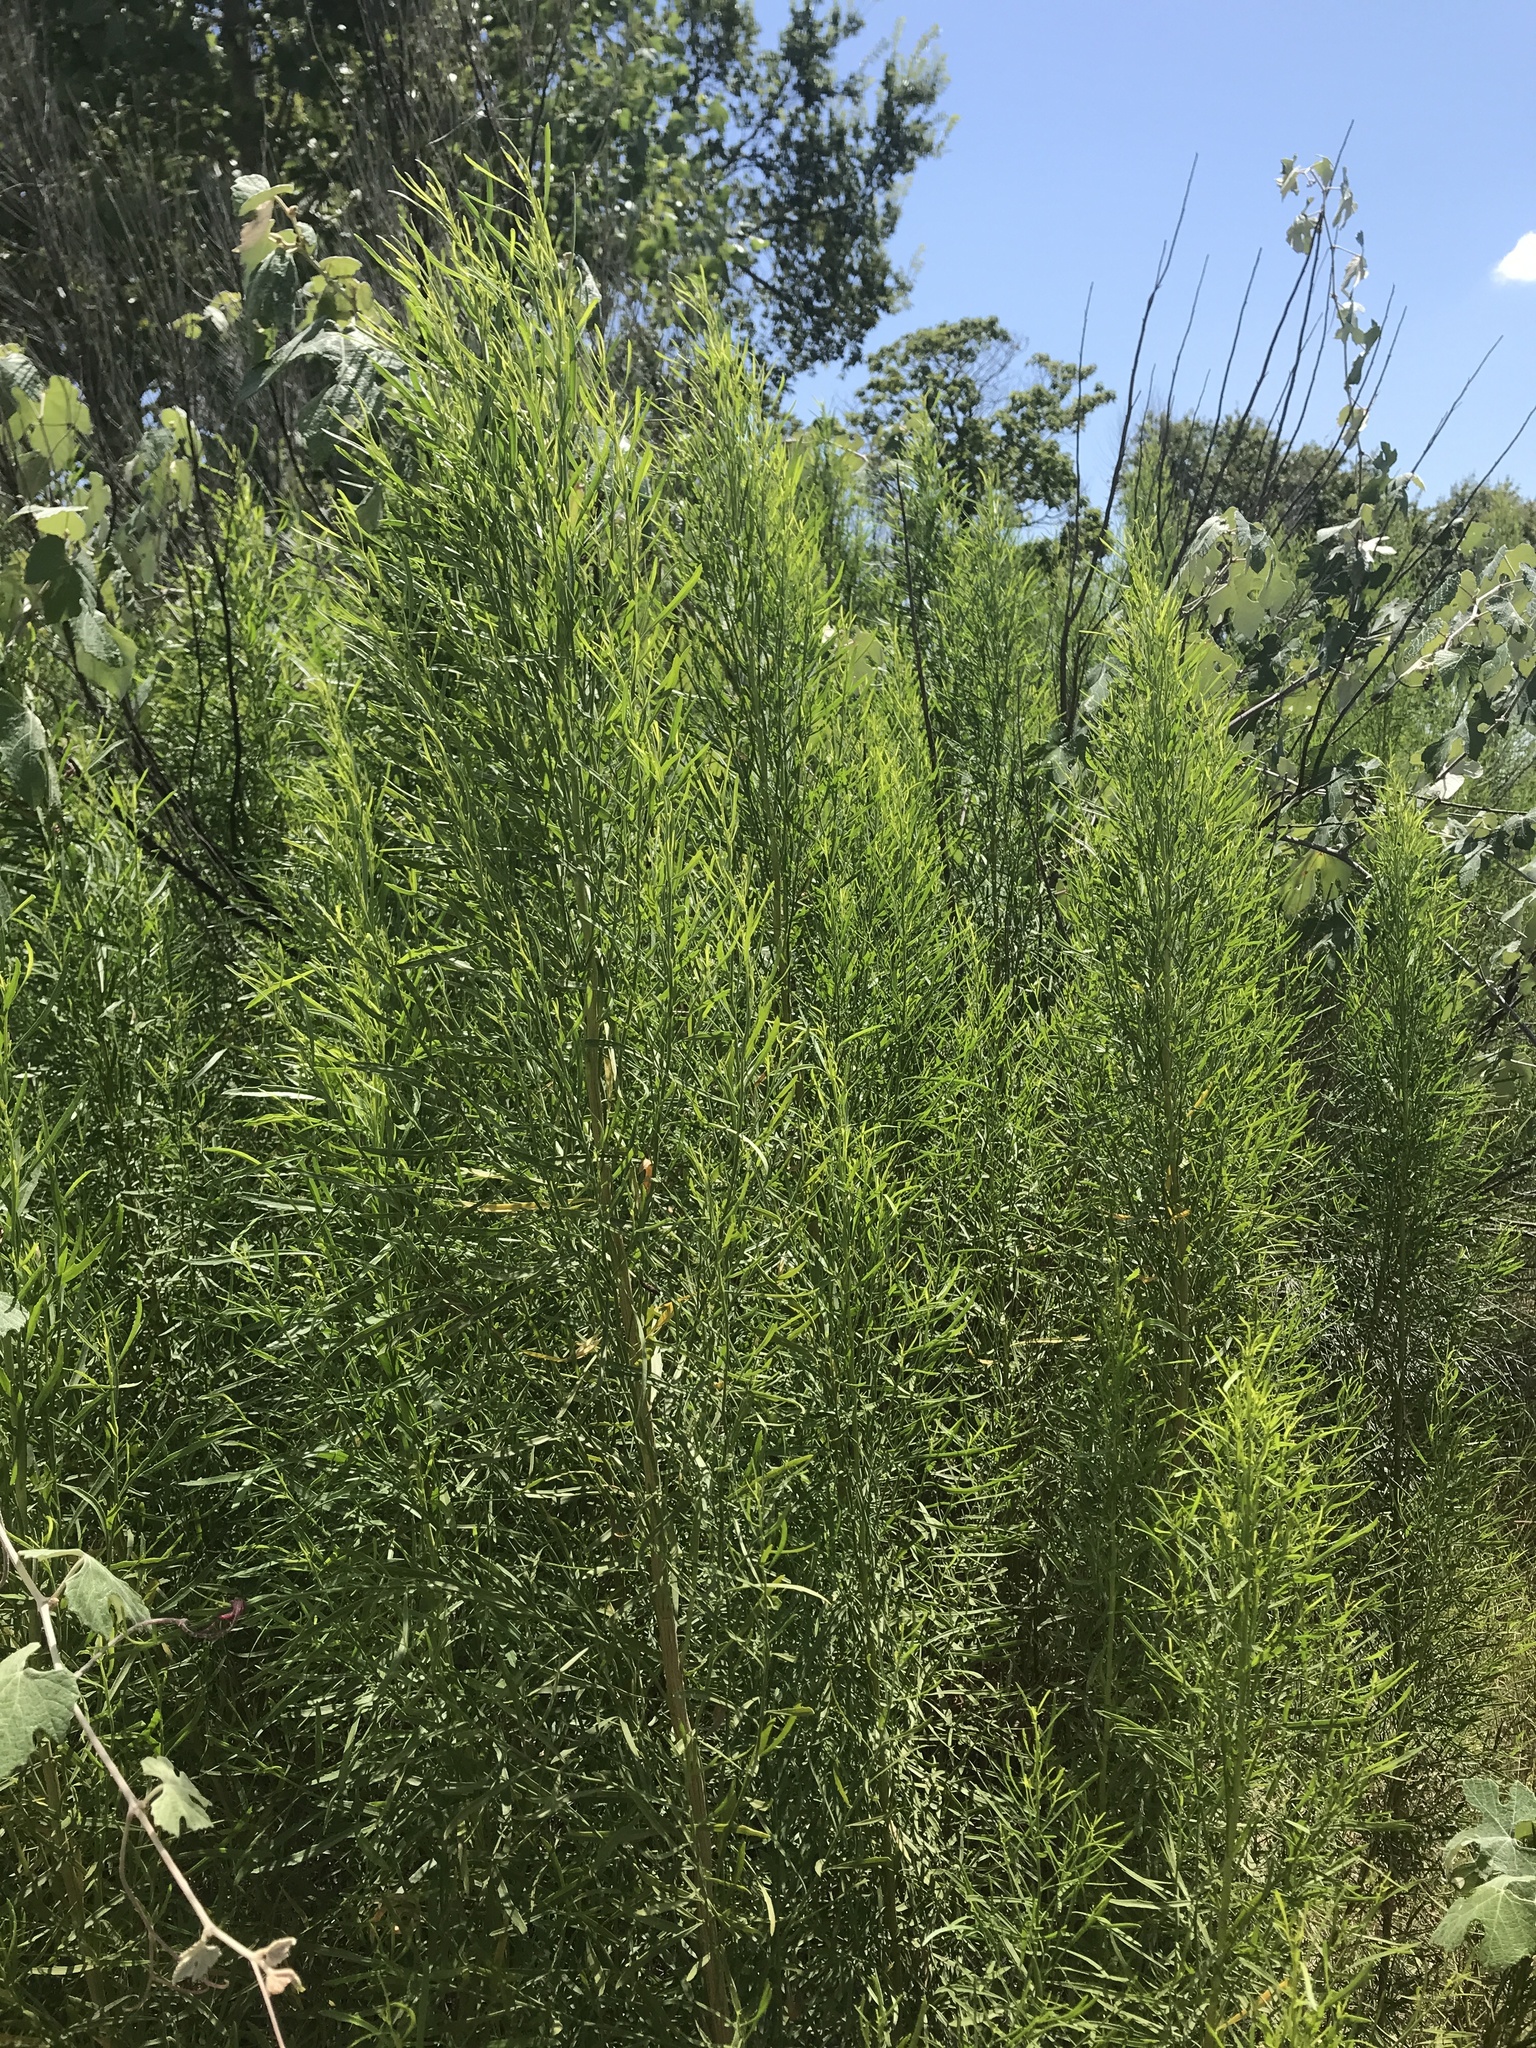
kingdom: Plantae
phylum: Tracheophyta
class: Magnoliopsida
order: Asterales
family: Asteraceae
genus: Baccharis
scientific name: Baccharis neglecta
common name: Roosevelt-weed
